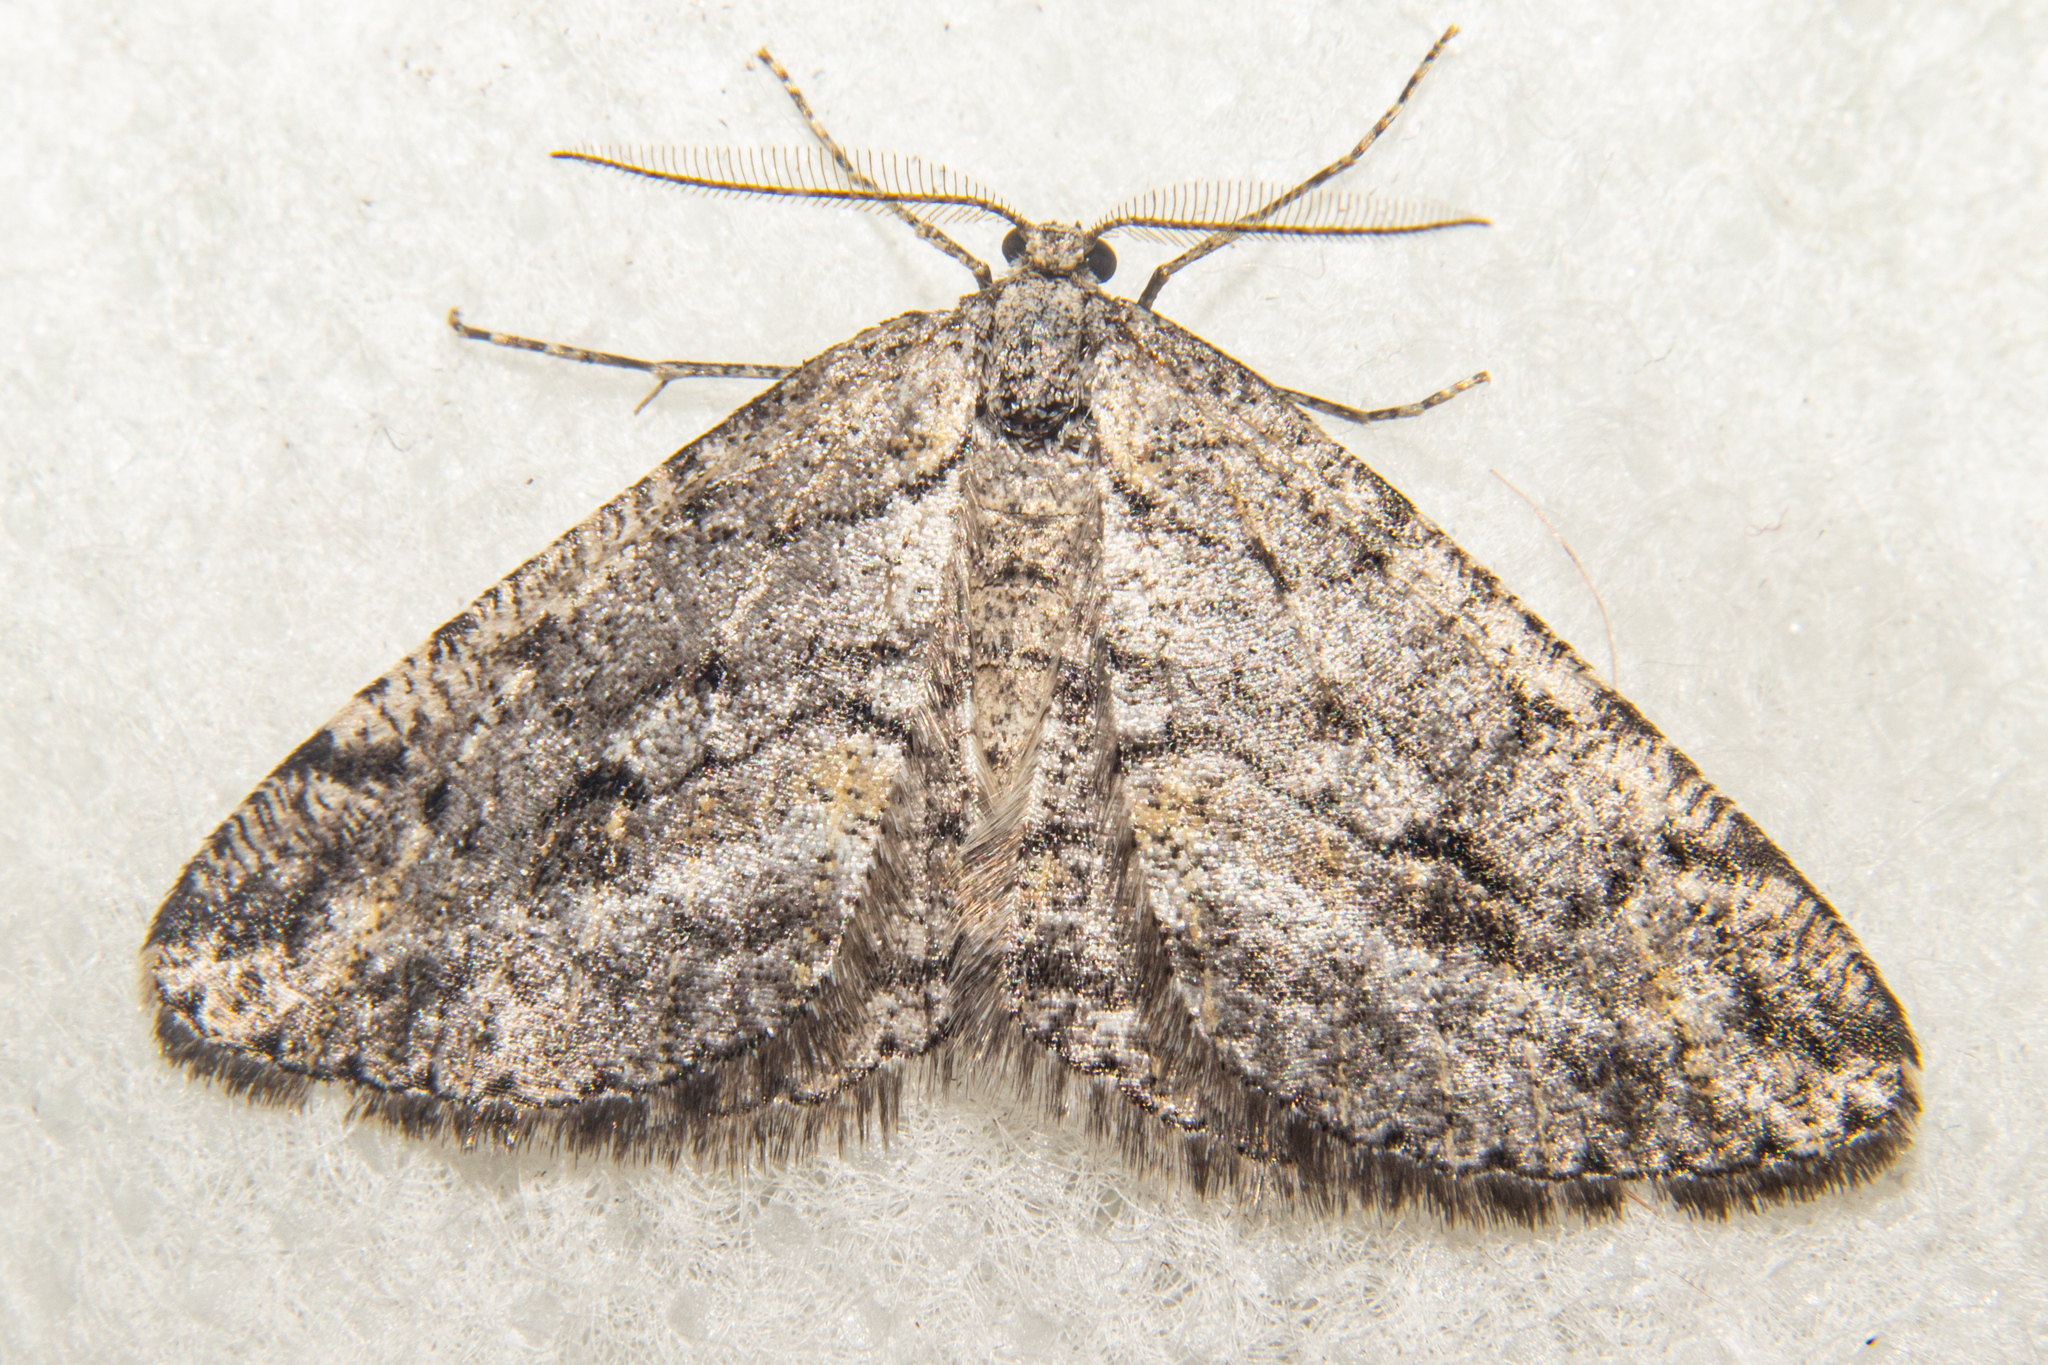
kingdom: Animalia
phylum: Arthropoda
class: Insecta
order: Lepidoptera
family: Geometridae
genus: Zermizinga
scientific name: Zermizinga indocilisaria
